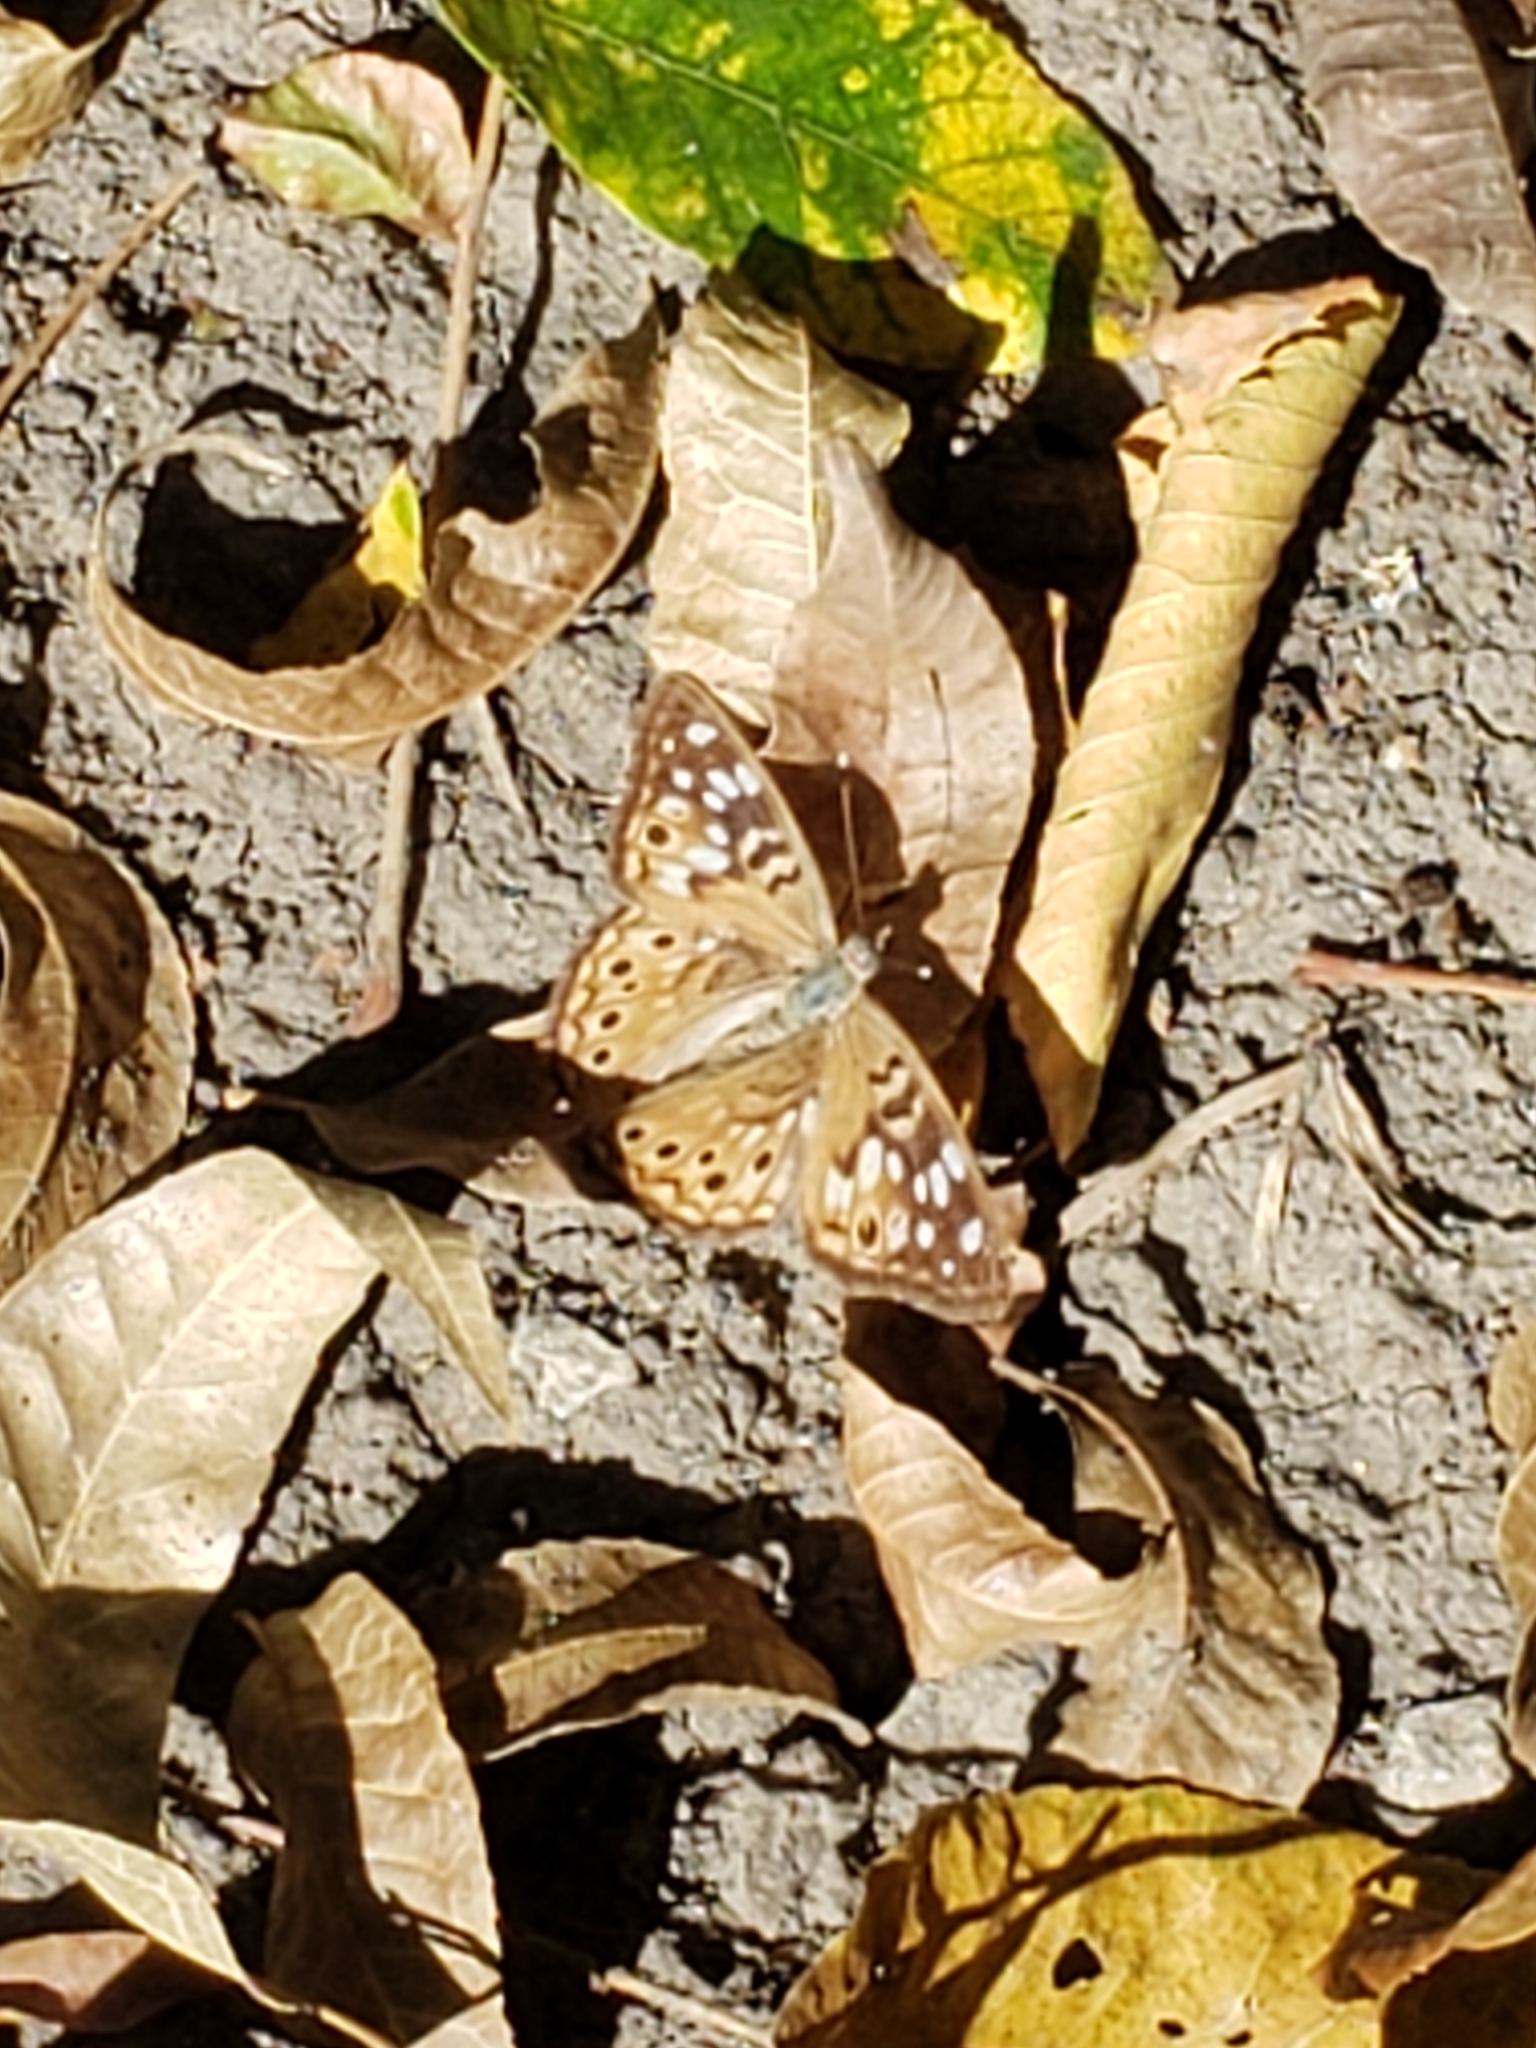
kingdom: Animalia
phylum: Arthropoda
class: Insecta
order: Lepidoptera
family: Nymphalidae
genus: Asterocampa
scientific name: Asterocampa celtis
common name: Hackberry emperor
